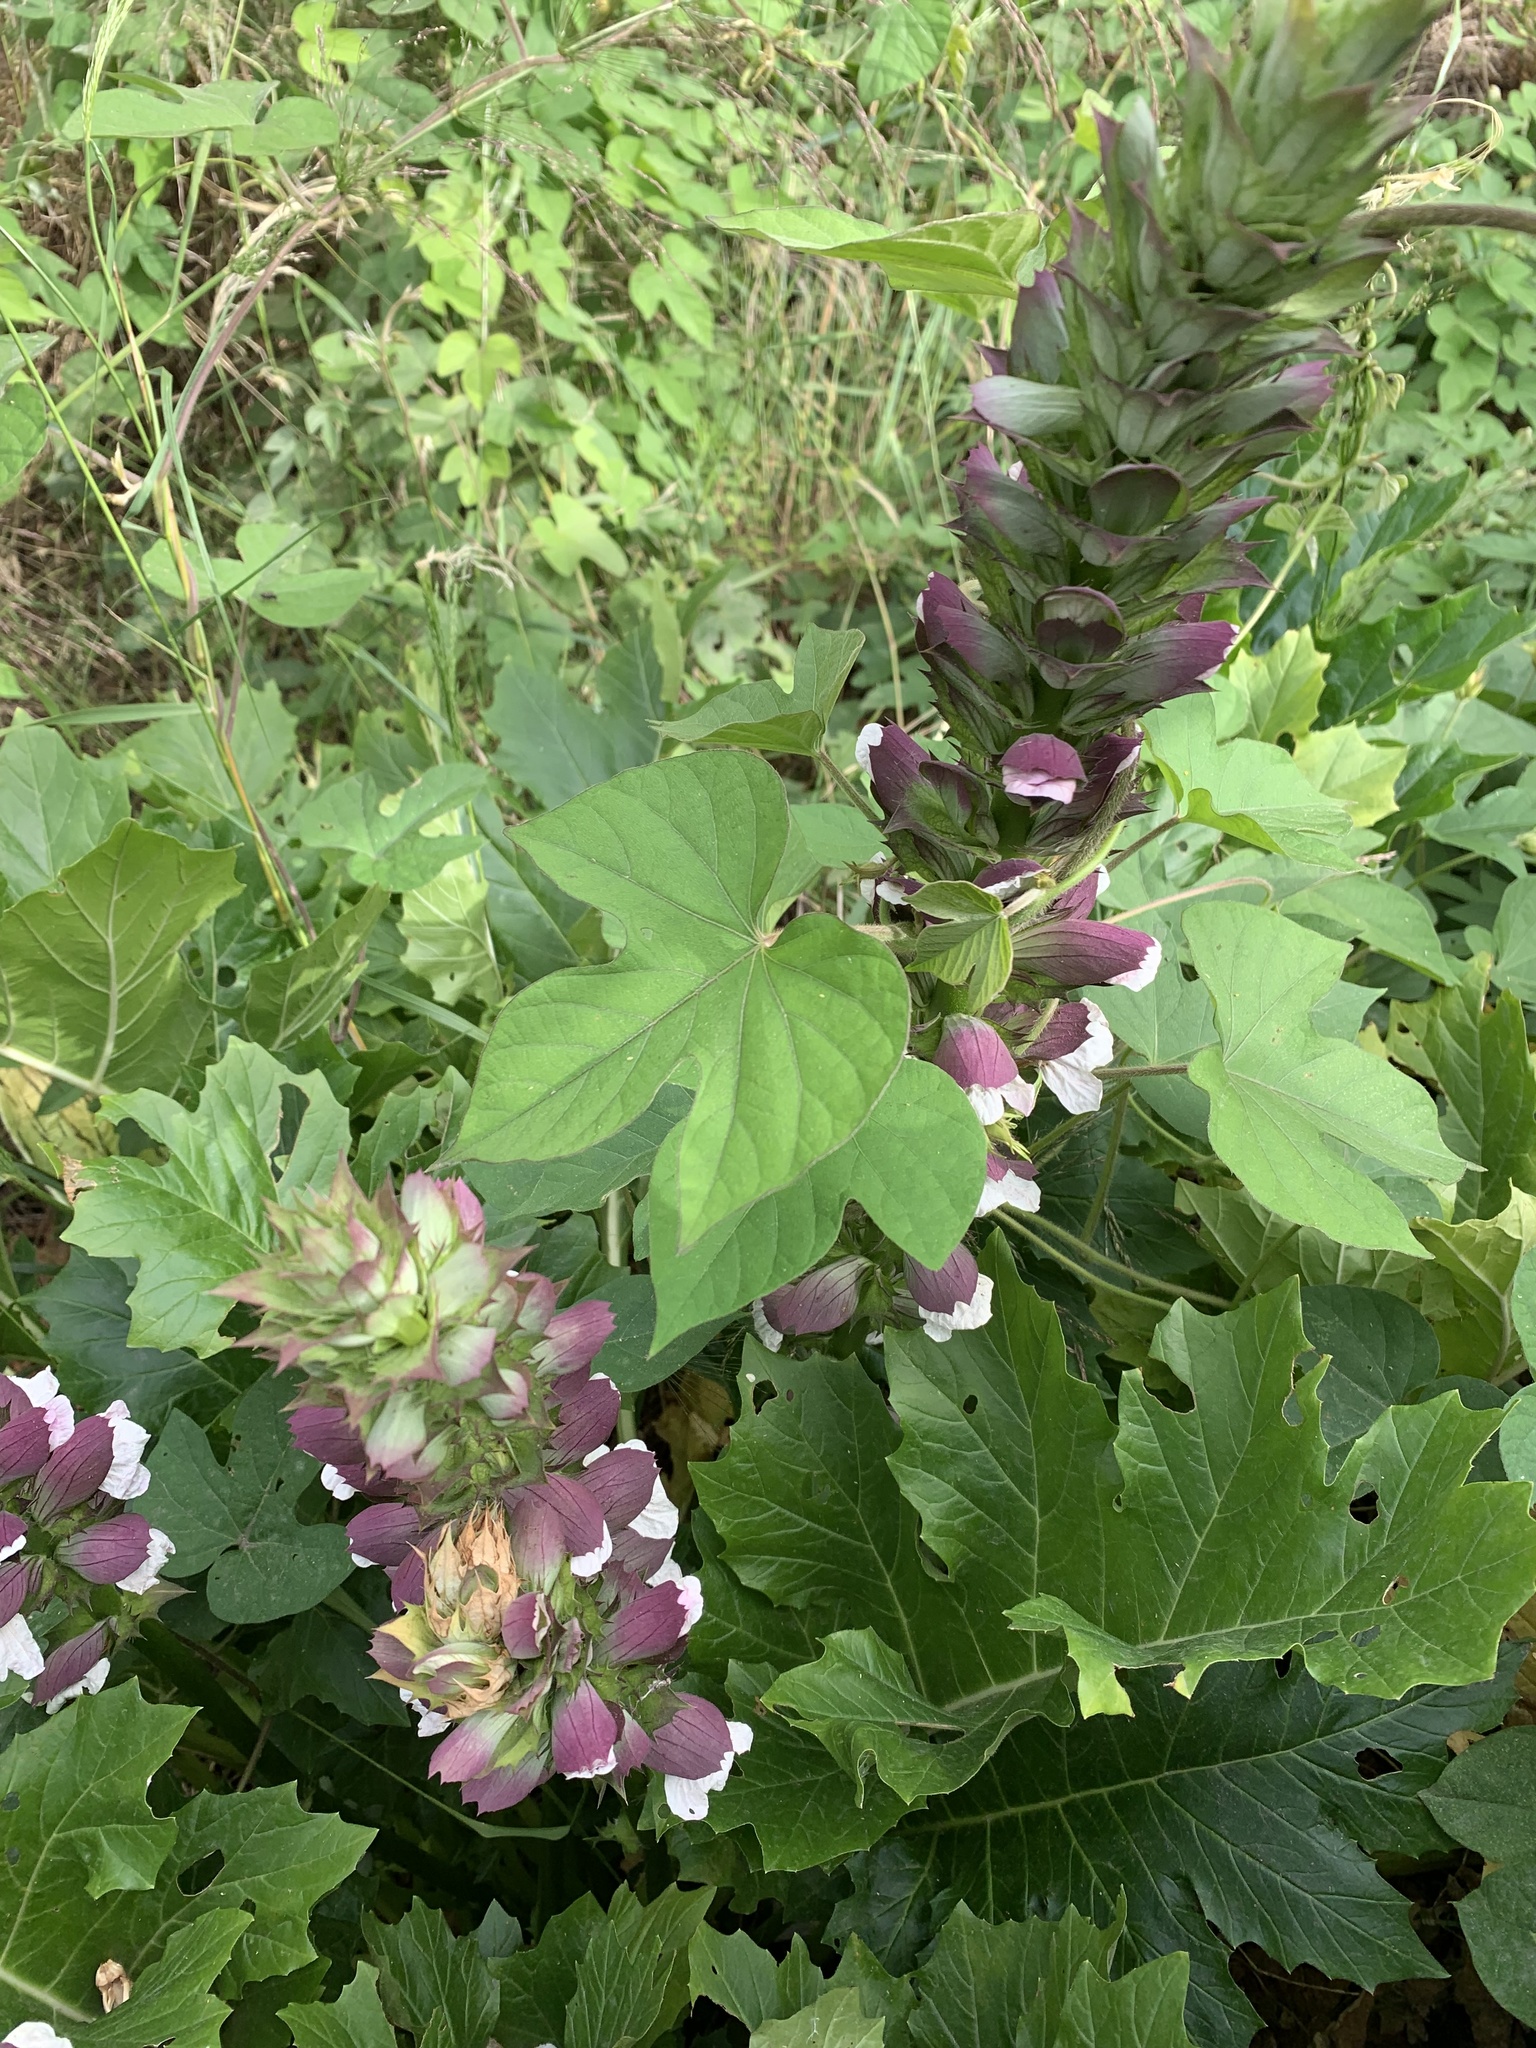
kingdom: Plantae
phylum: Tracheophyta
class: Magnoliopsida
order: Lamiales
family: Acanthaceae
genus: Acanthus
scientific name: Acanthus mollis
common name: Bear's-breech
